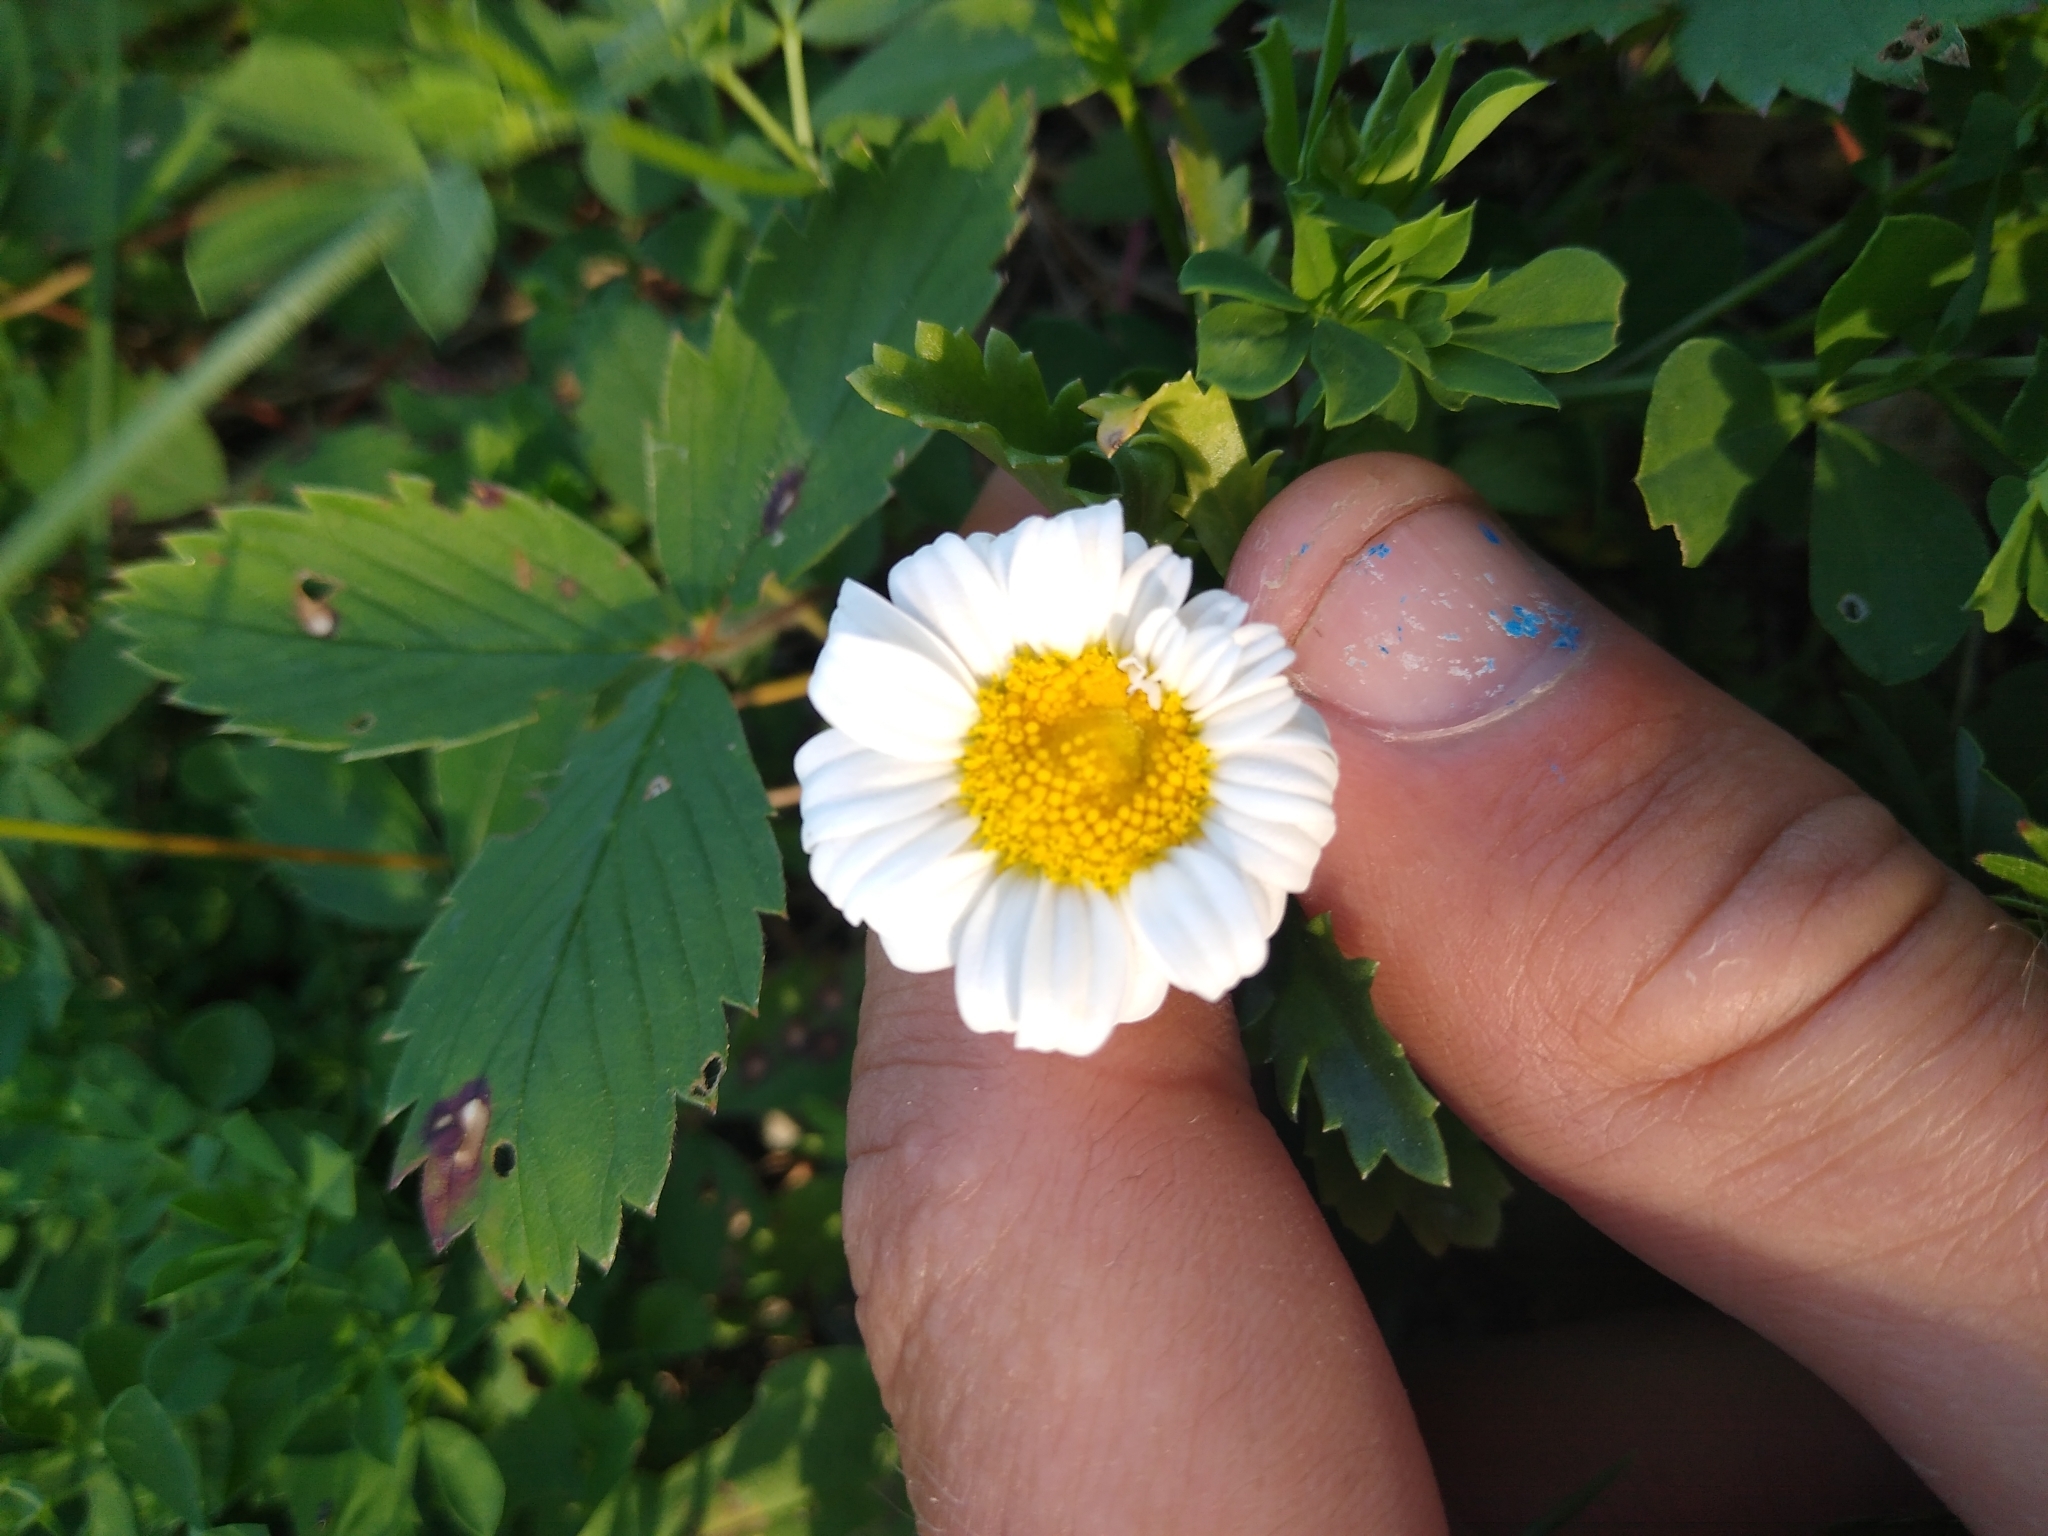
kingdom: Plantae
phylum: Tracheophyta
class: Magnoliopsida
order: Asterales
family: Asteraceae
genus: Leucanthemum
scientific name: Leucanthemum vulgare
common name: Oxeye daisy
